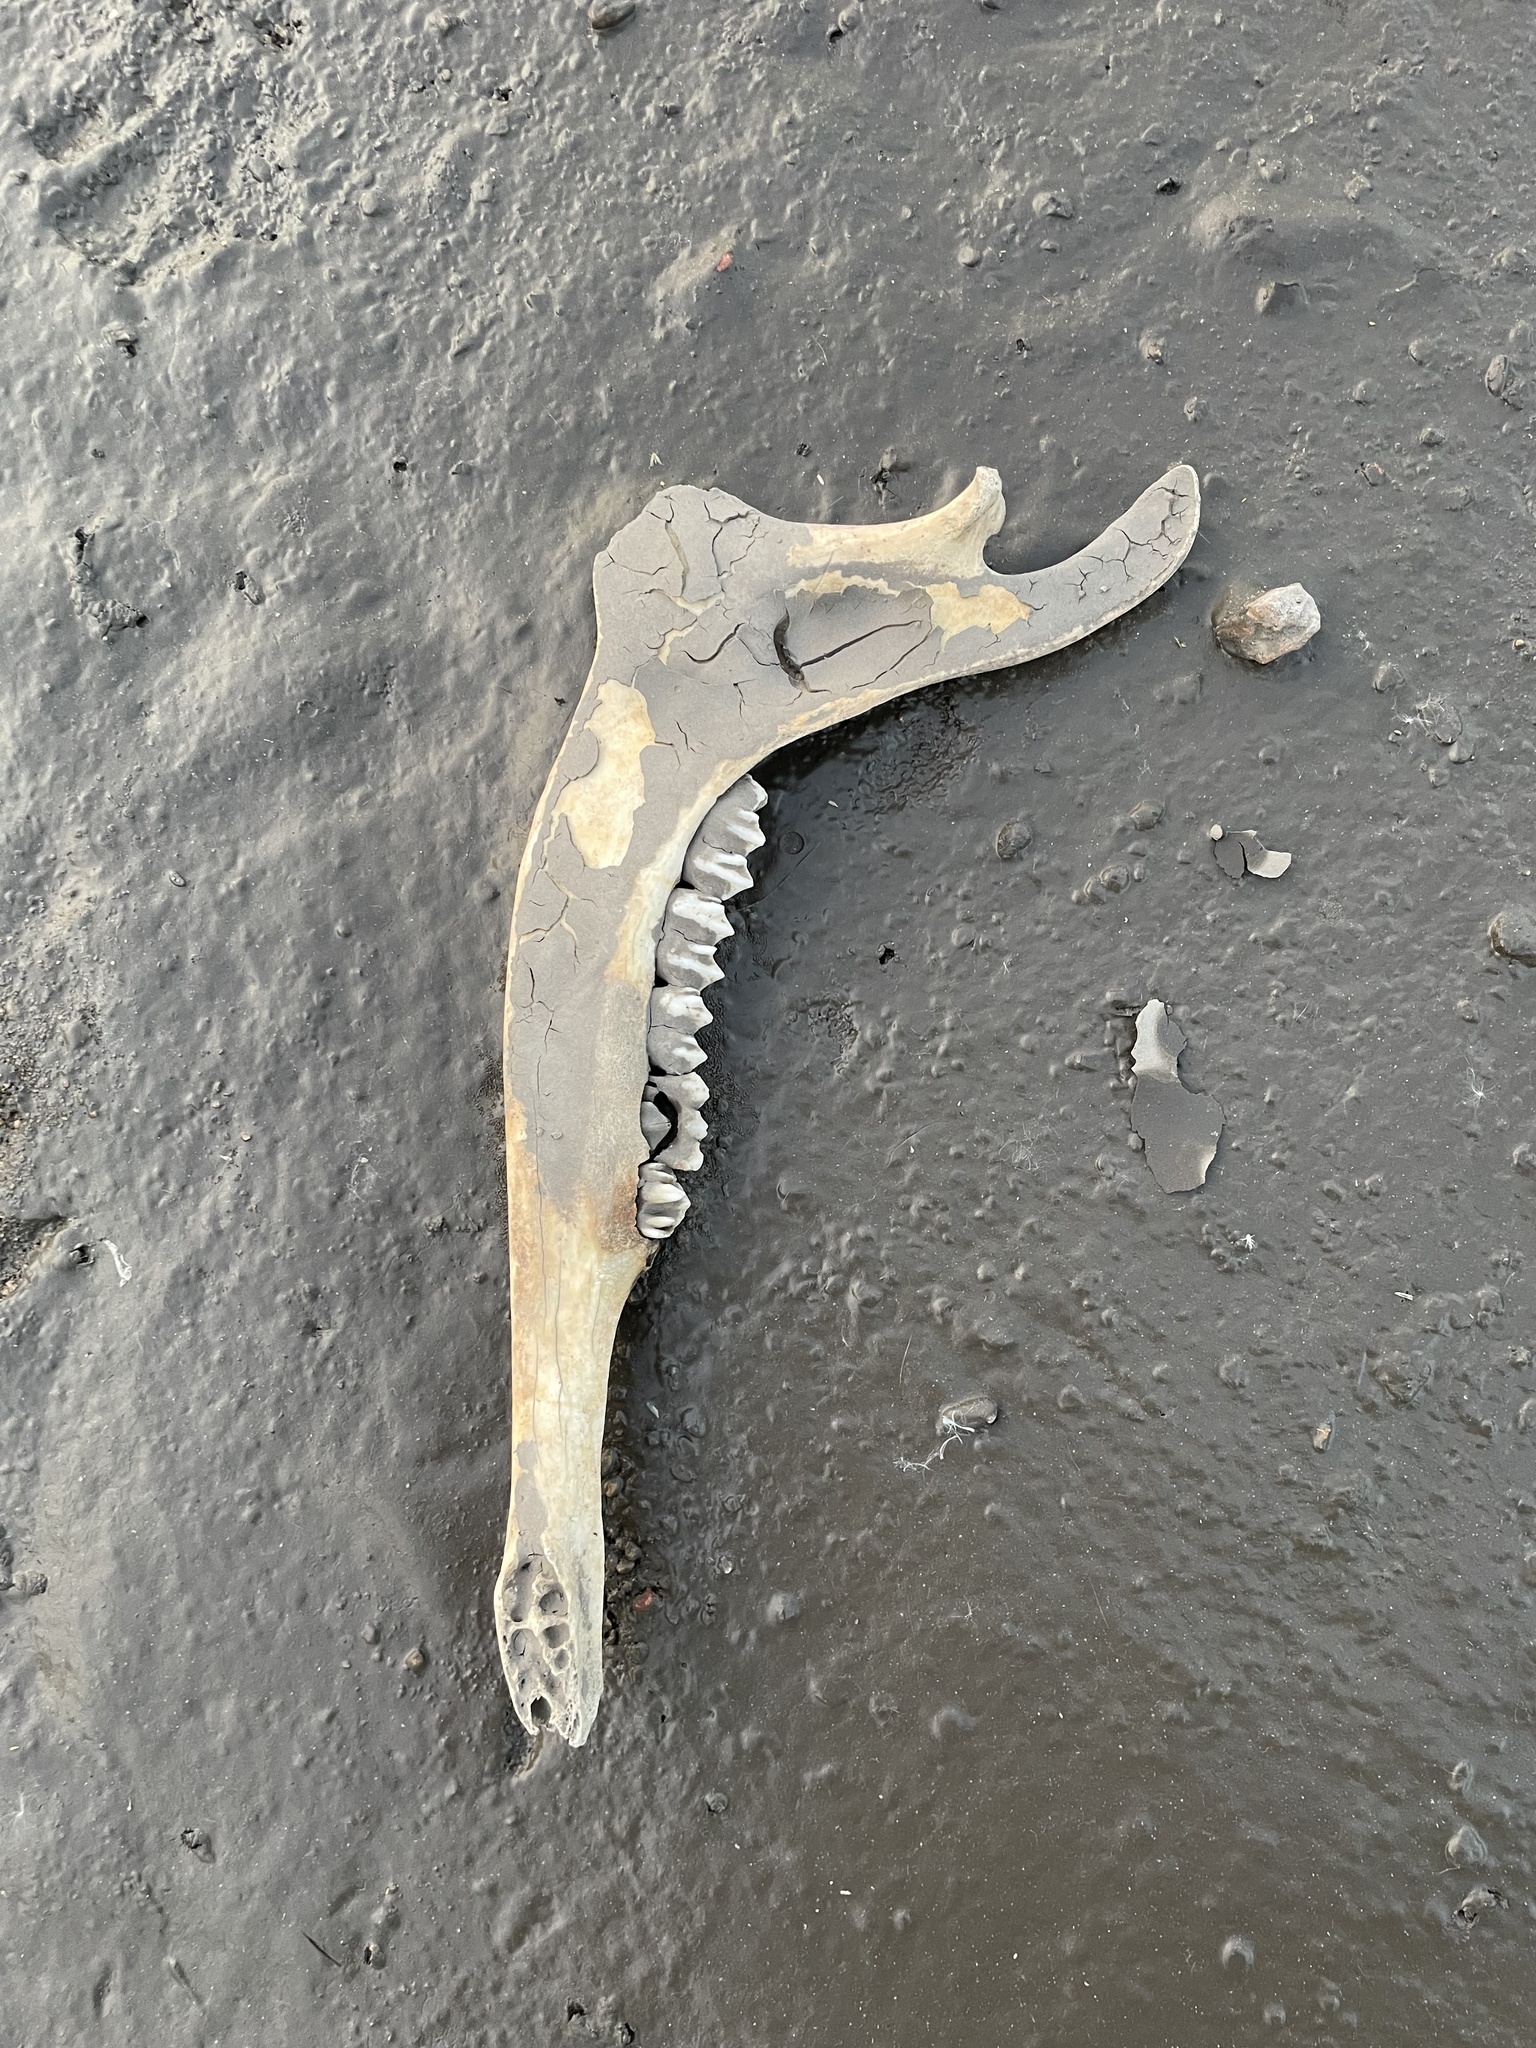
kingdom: Animalia
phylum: Chordata
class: Mammalia
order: Artiodactyla
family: Cervidae
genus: Odocoileus
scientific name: Odocoileus virginianus
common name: White-tailed deer
